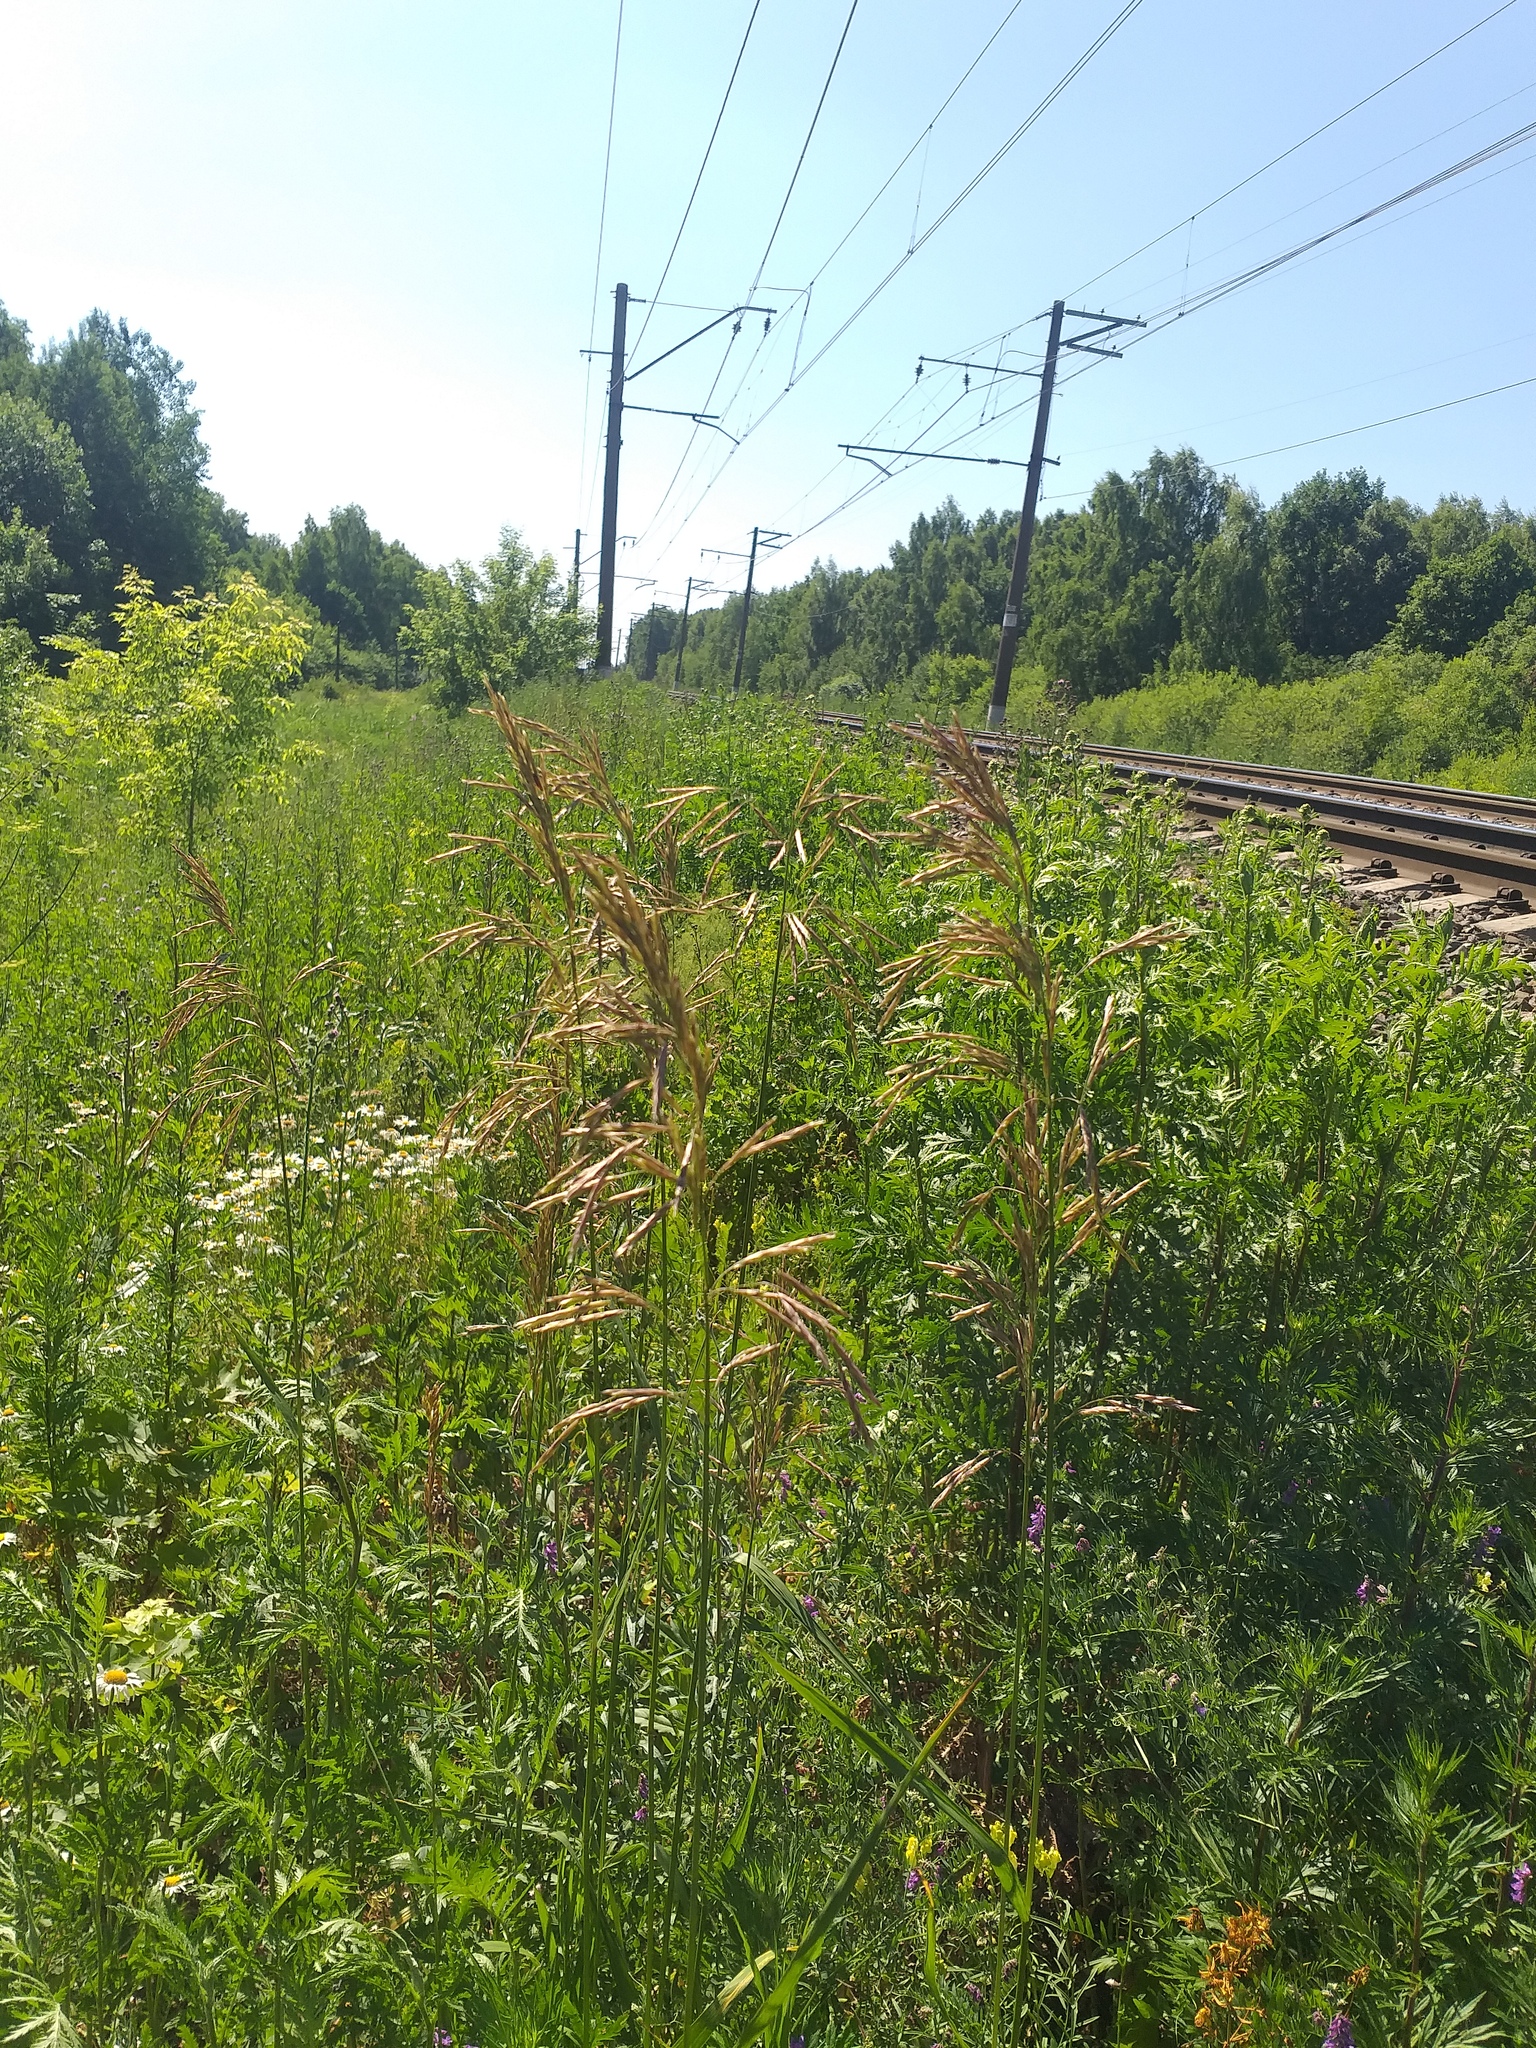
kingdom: Plantae
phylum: Tracheophyta
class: Liliopsida
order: Poales
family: Poaceae
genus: Bromus
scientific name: Bromus inermis
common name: Smooth brome
